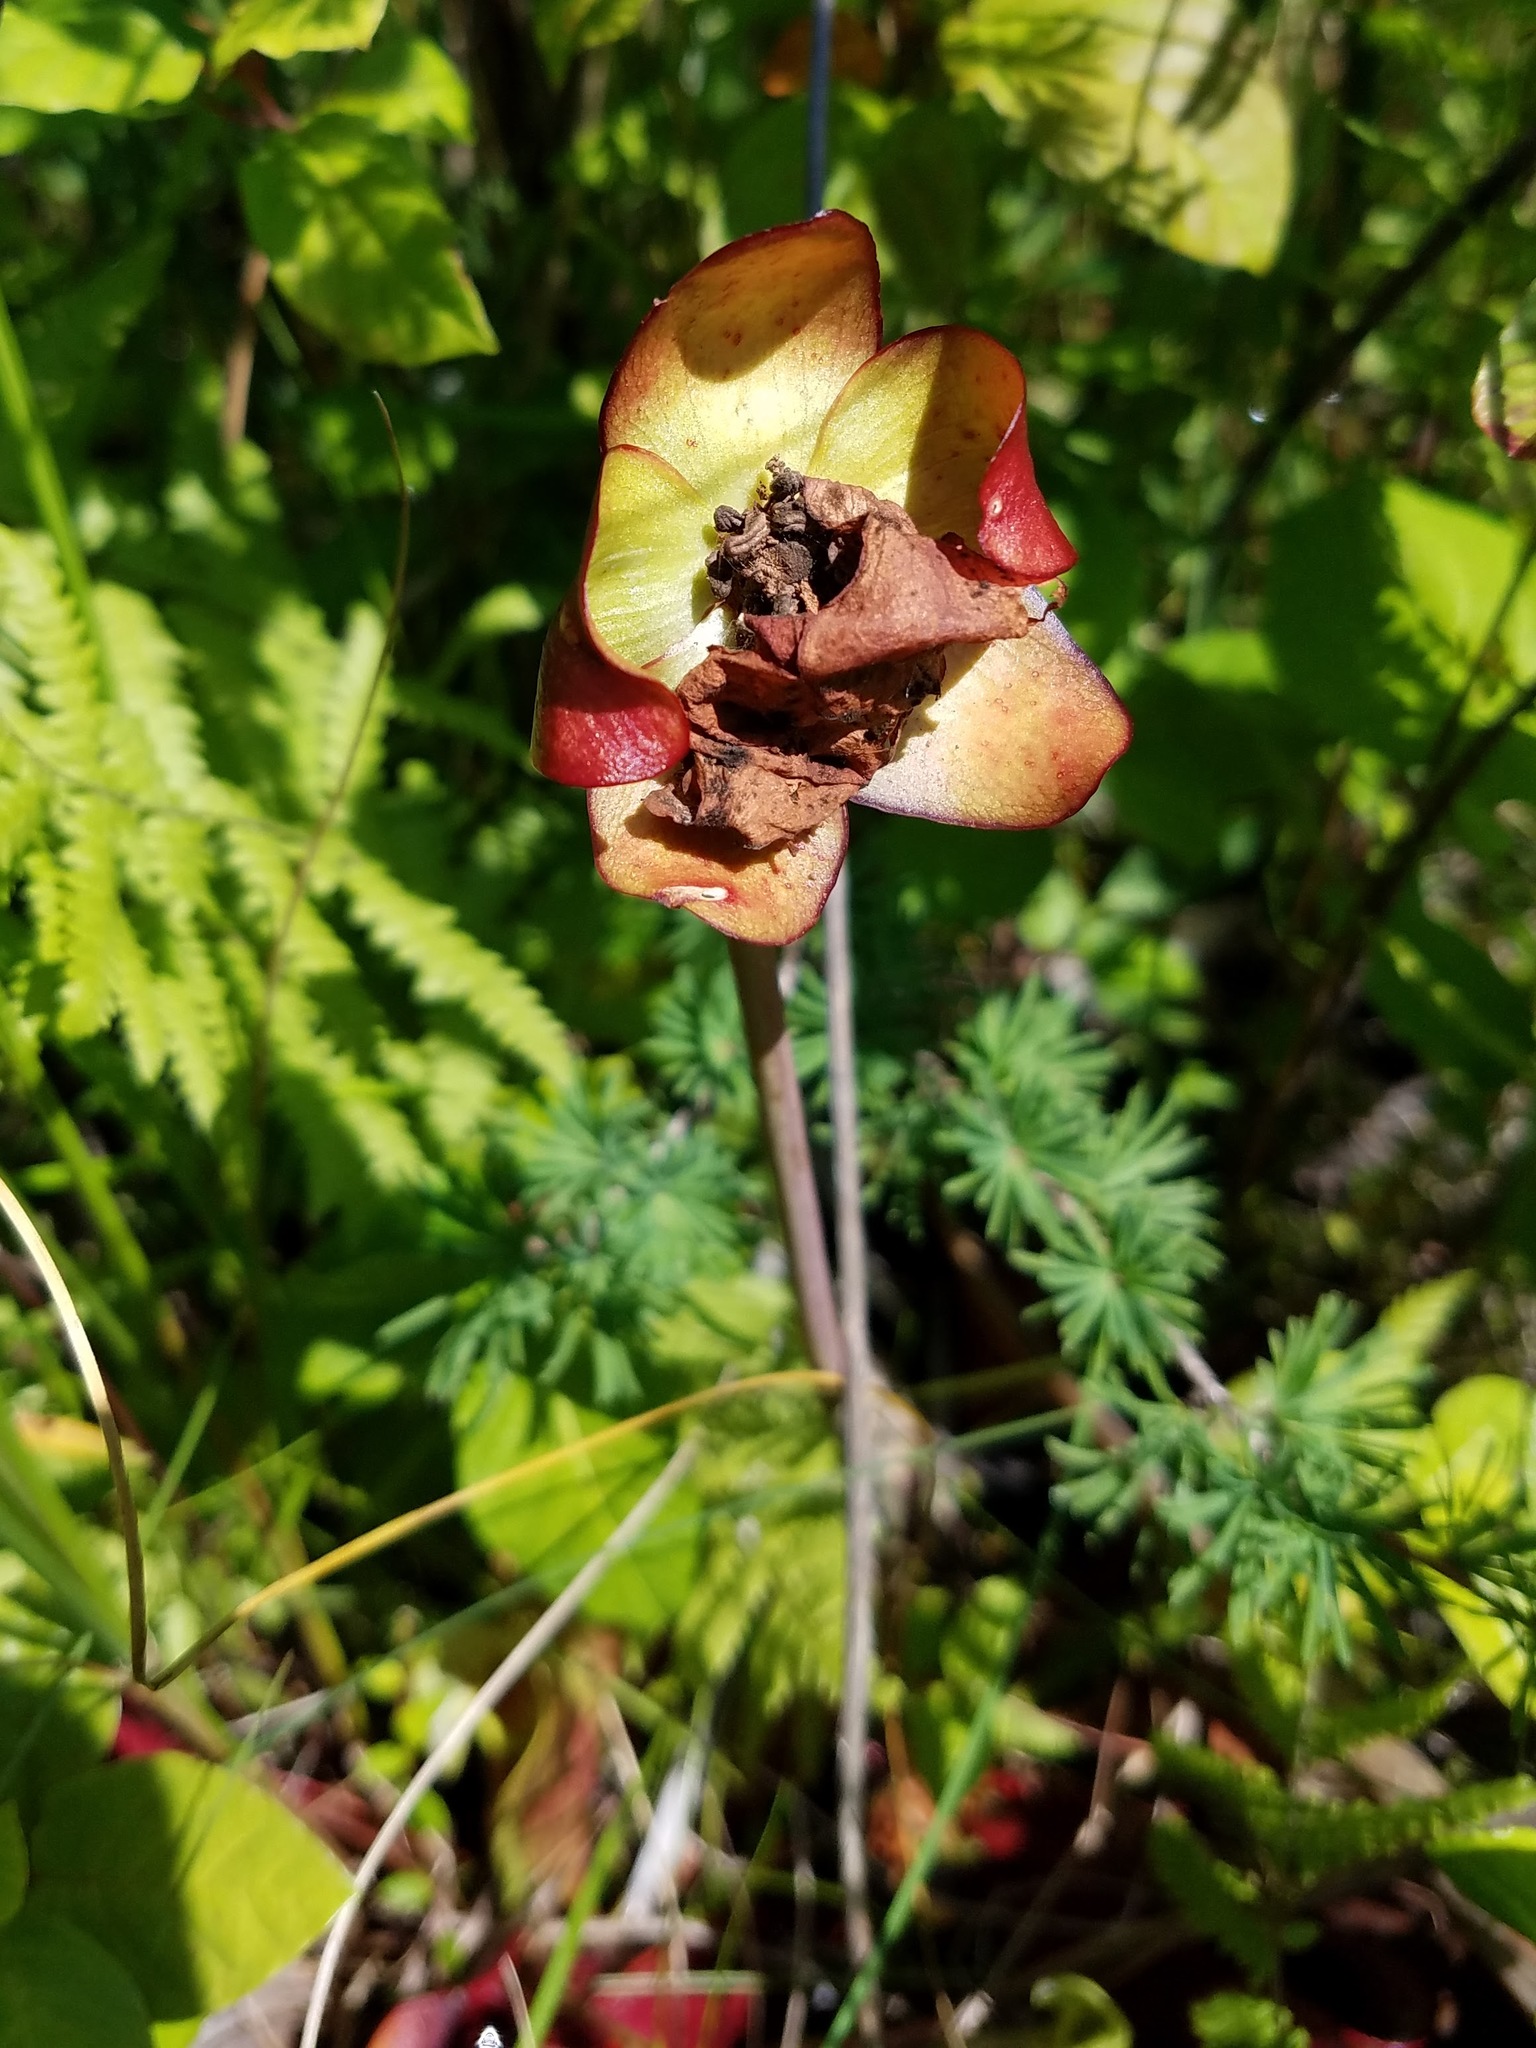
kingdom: Plantae
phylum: Tracheophyta
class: Magnoliopsida
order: Ericales
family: Sarraceniaceae
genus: Sarracenia
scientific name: Sarracenia purpurea
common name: Pitcherplant
